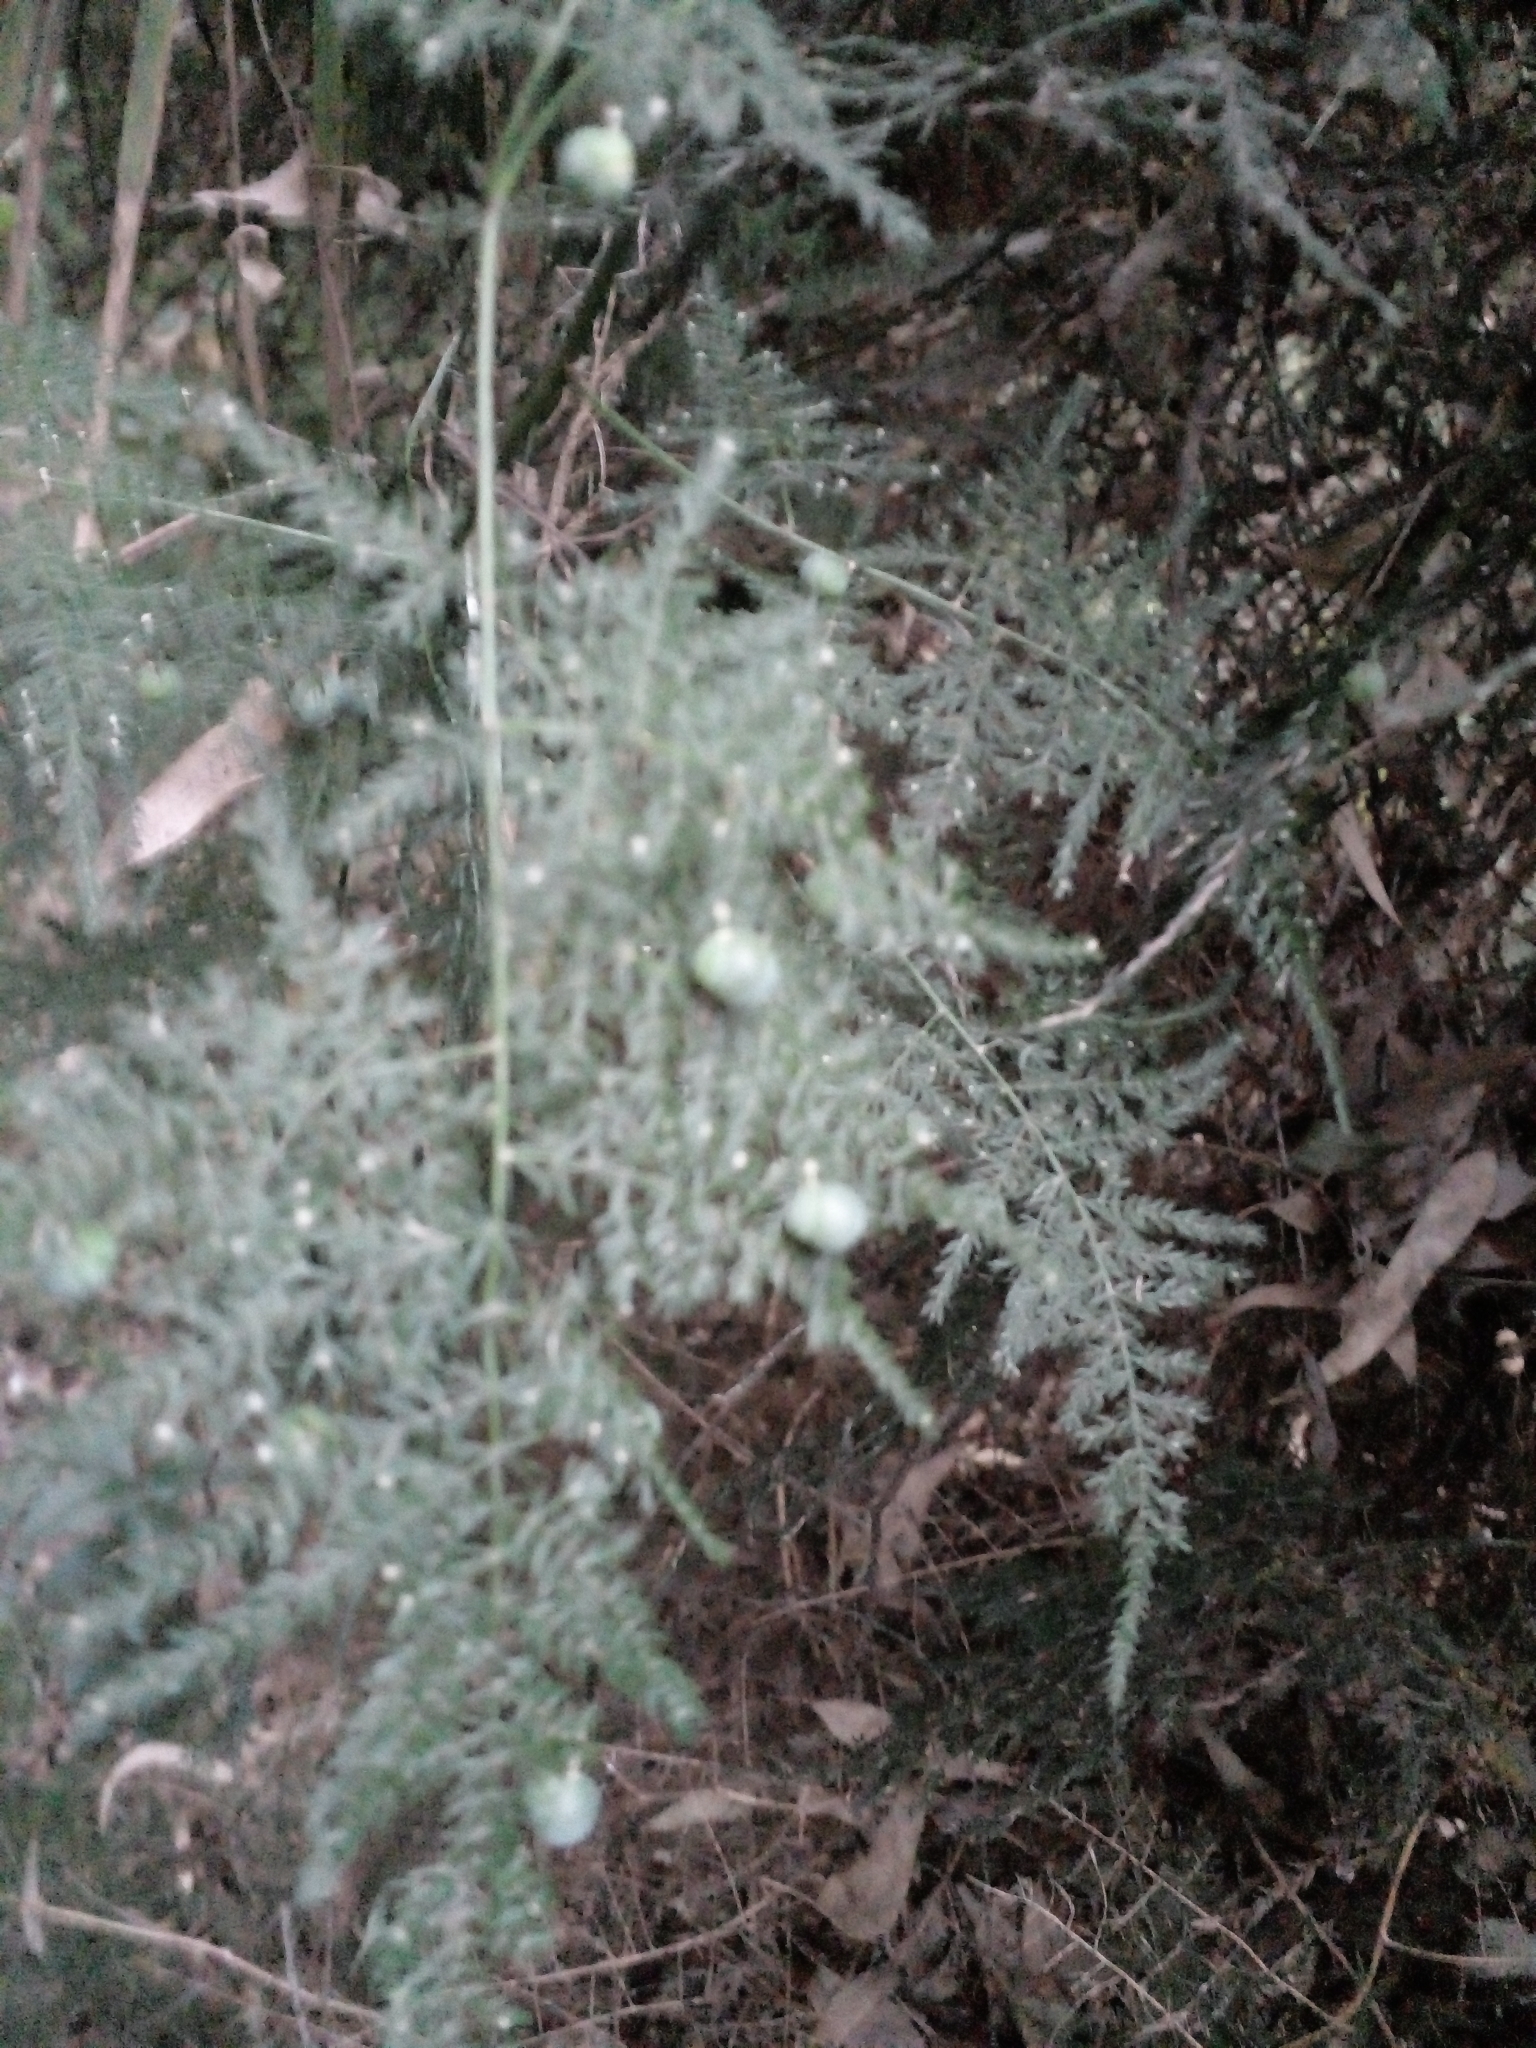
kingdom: Plantae
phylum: Tracheophyta
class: Liliopsida
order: Asparagales
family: Asparagaceae
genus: Asparagus
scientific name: Asparagus setaceus
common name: Common asparagus fern
